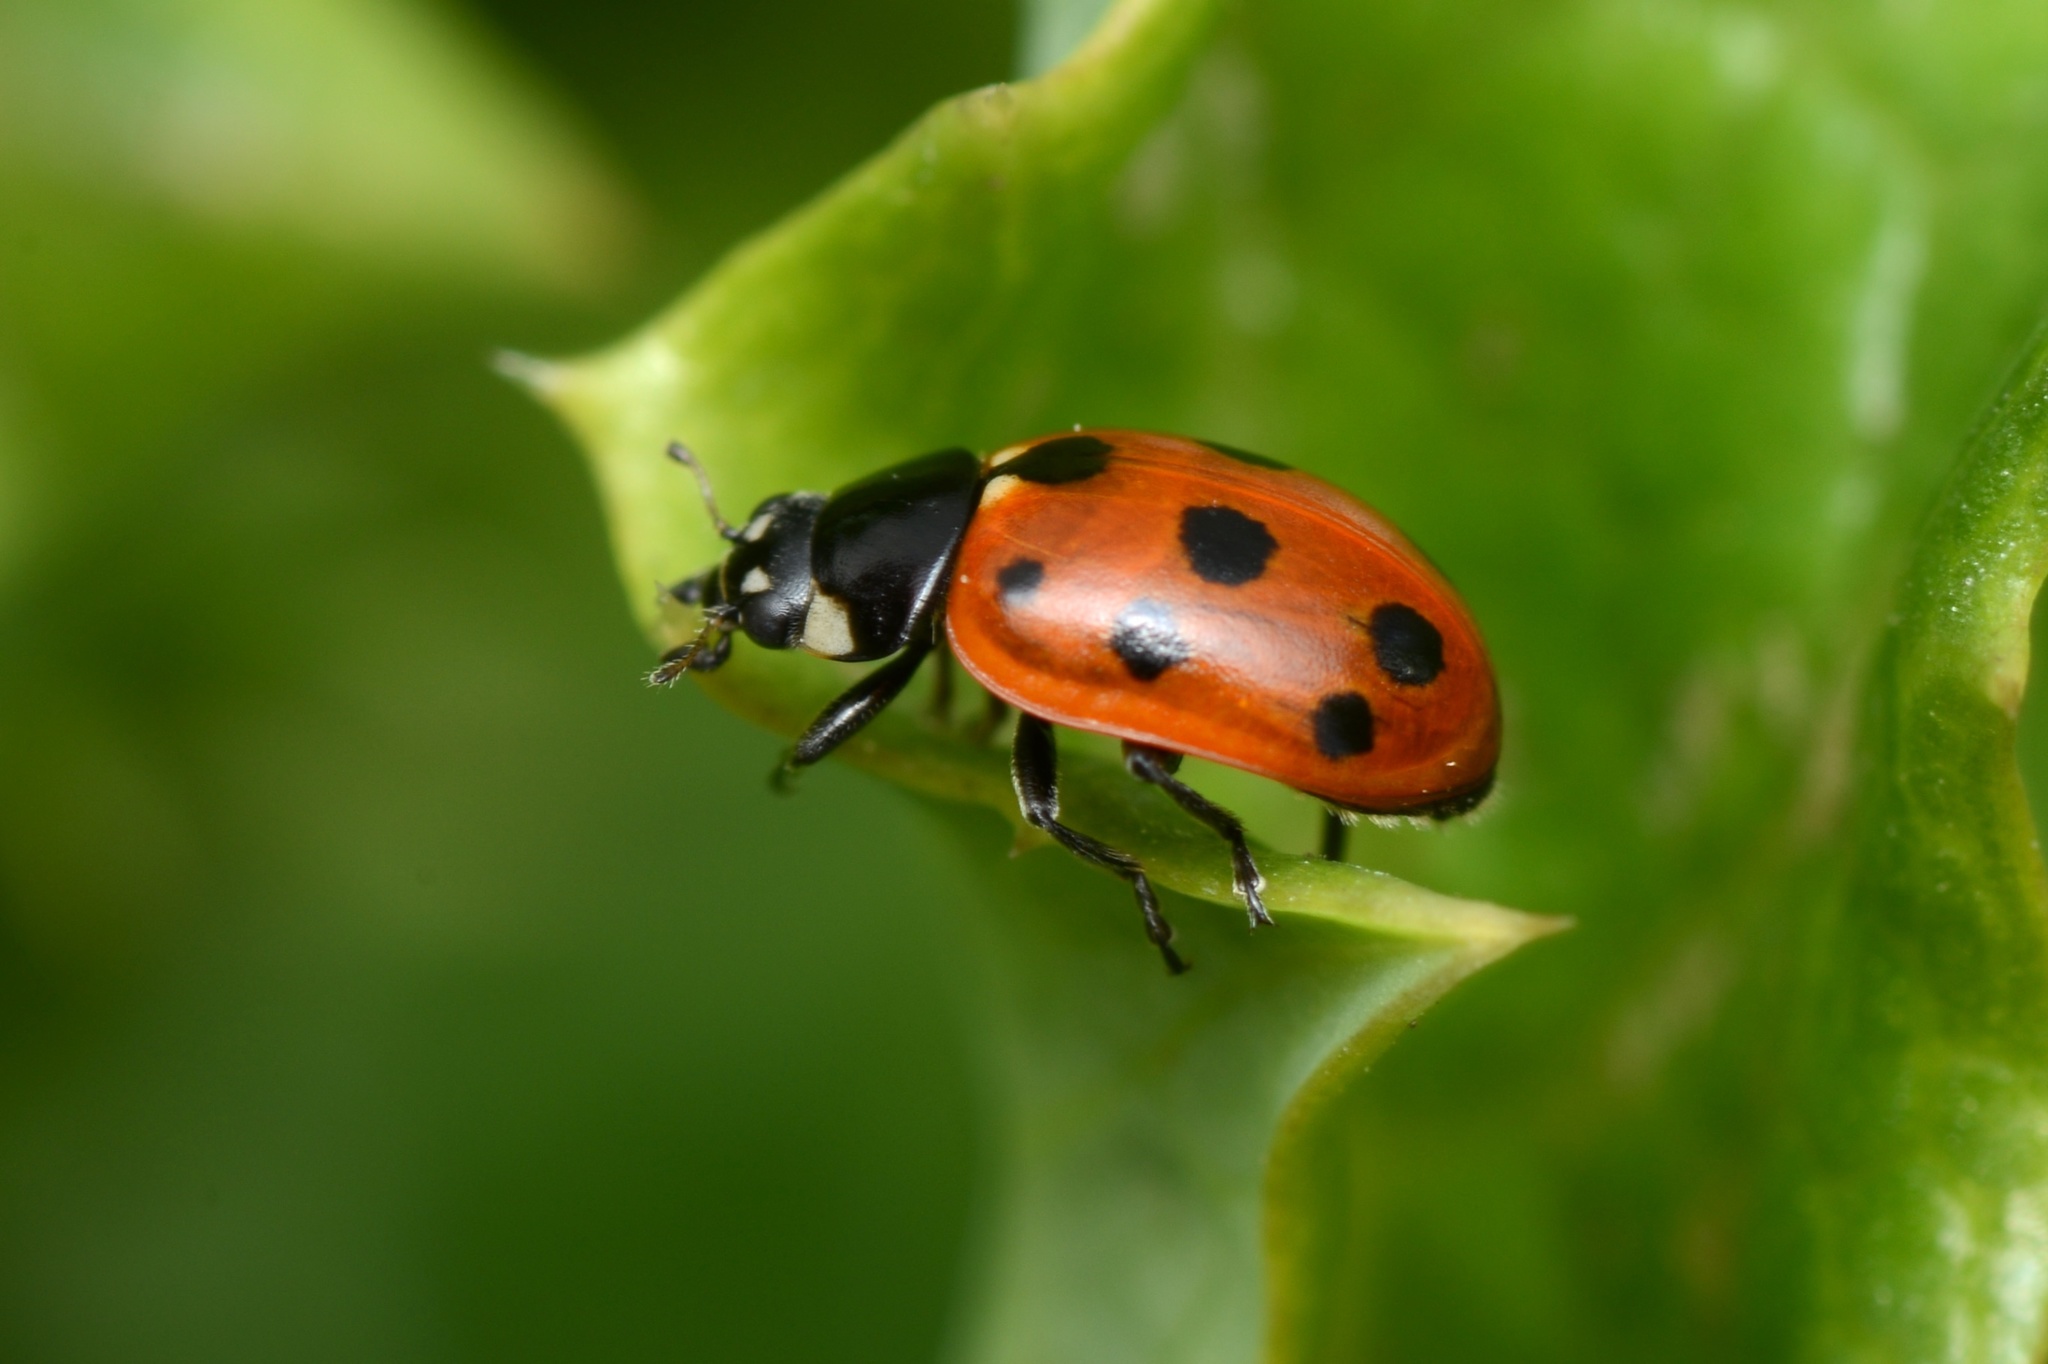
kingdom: Animalia
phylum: Arthropoda
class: Insecta
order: Coleoptera
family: Coccinellidae
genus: Coccinella
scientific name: Coccinella undecimpunctata
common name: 11-spot ladybird
